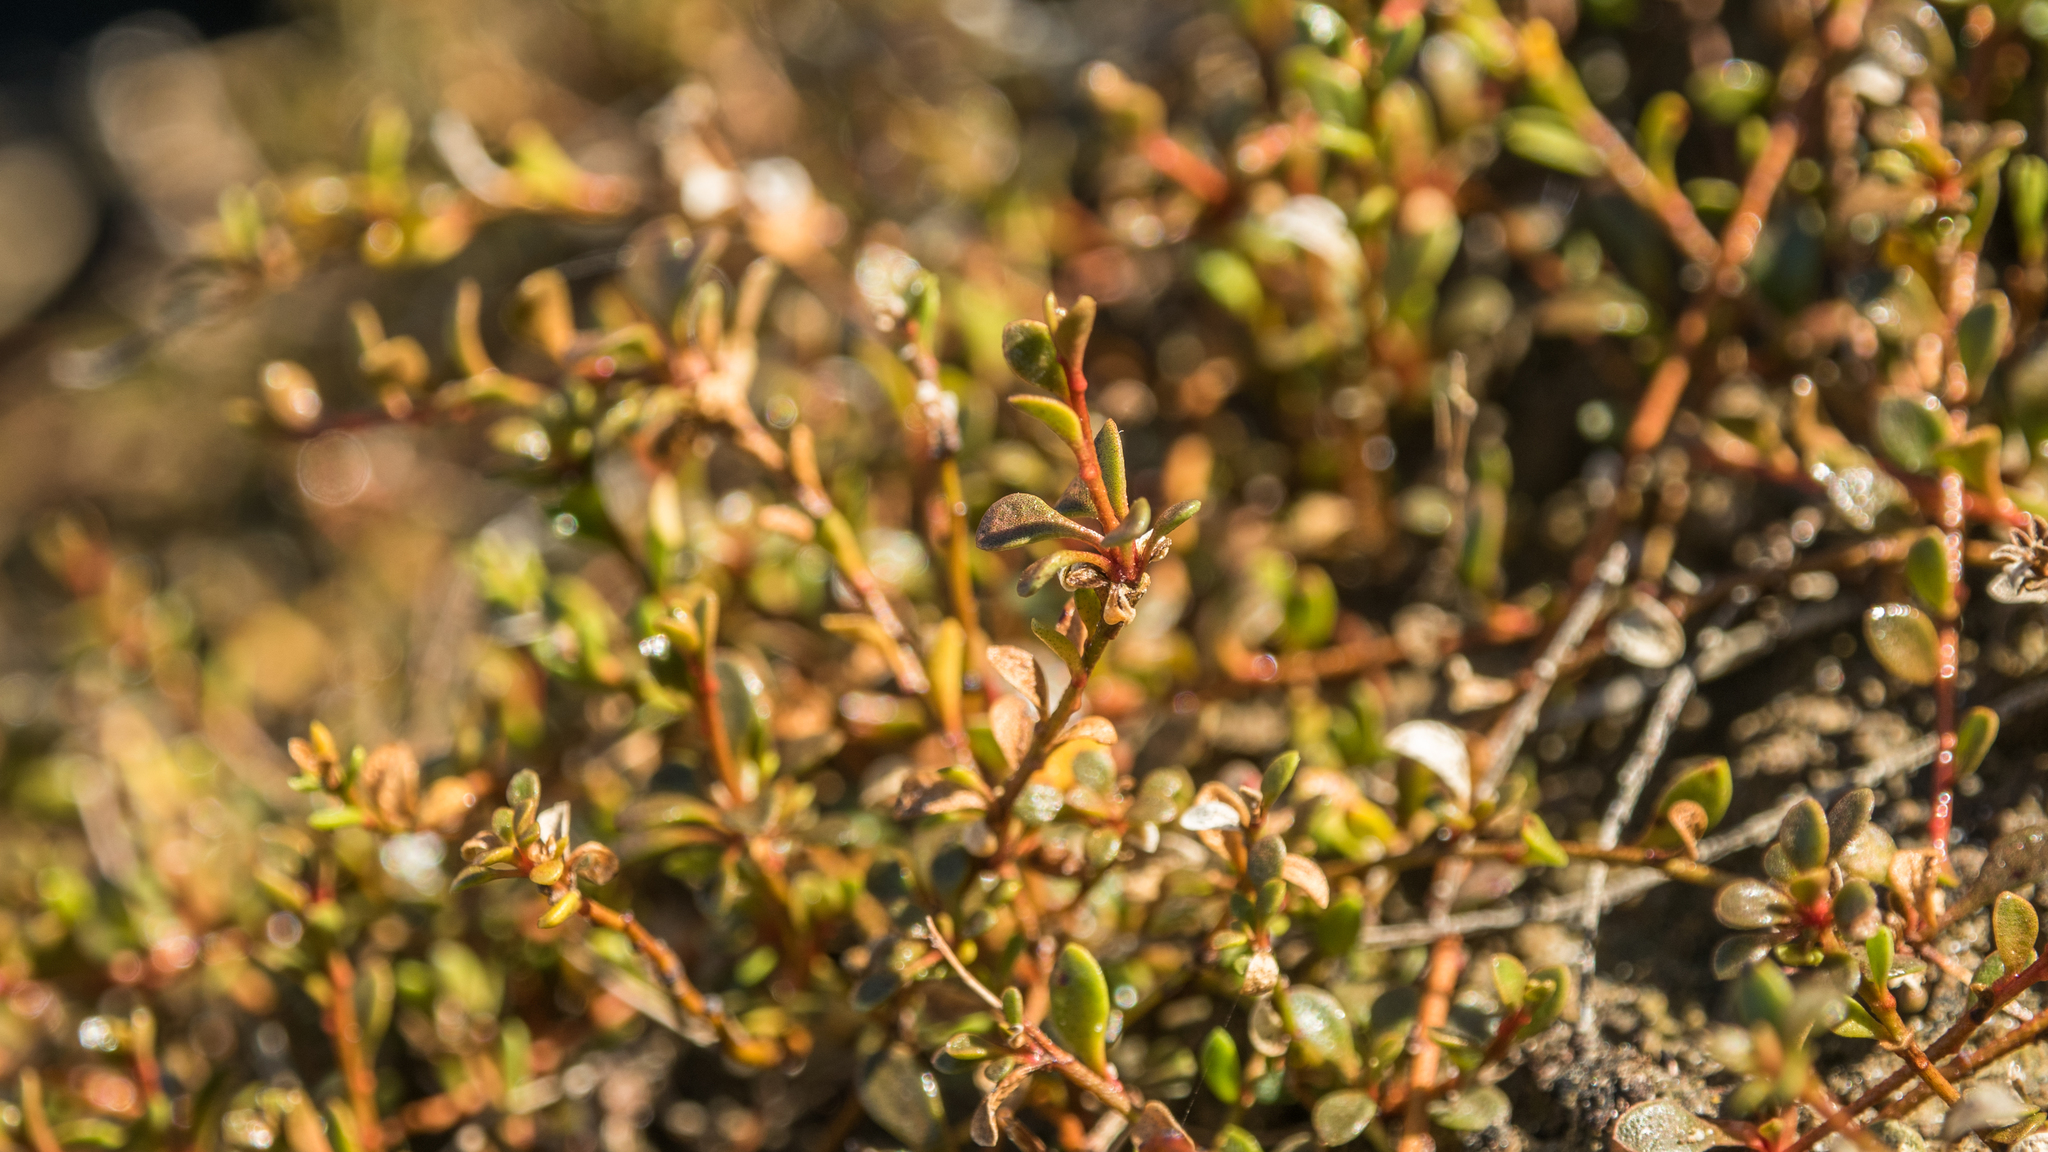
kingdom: Plantae
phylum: Tracheophyta
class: Magnoliopsida
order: Ericales
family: Primulaceae
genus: Samolus
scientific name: Samolus repens
